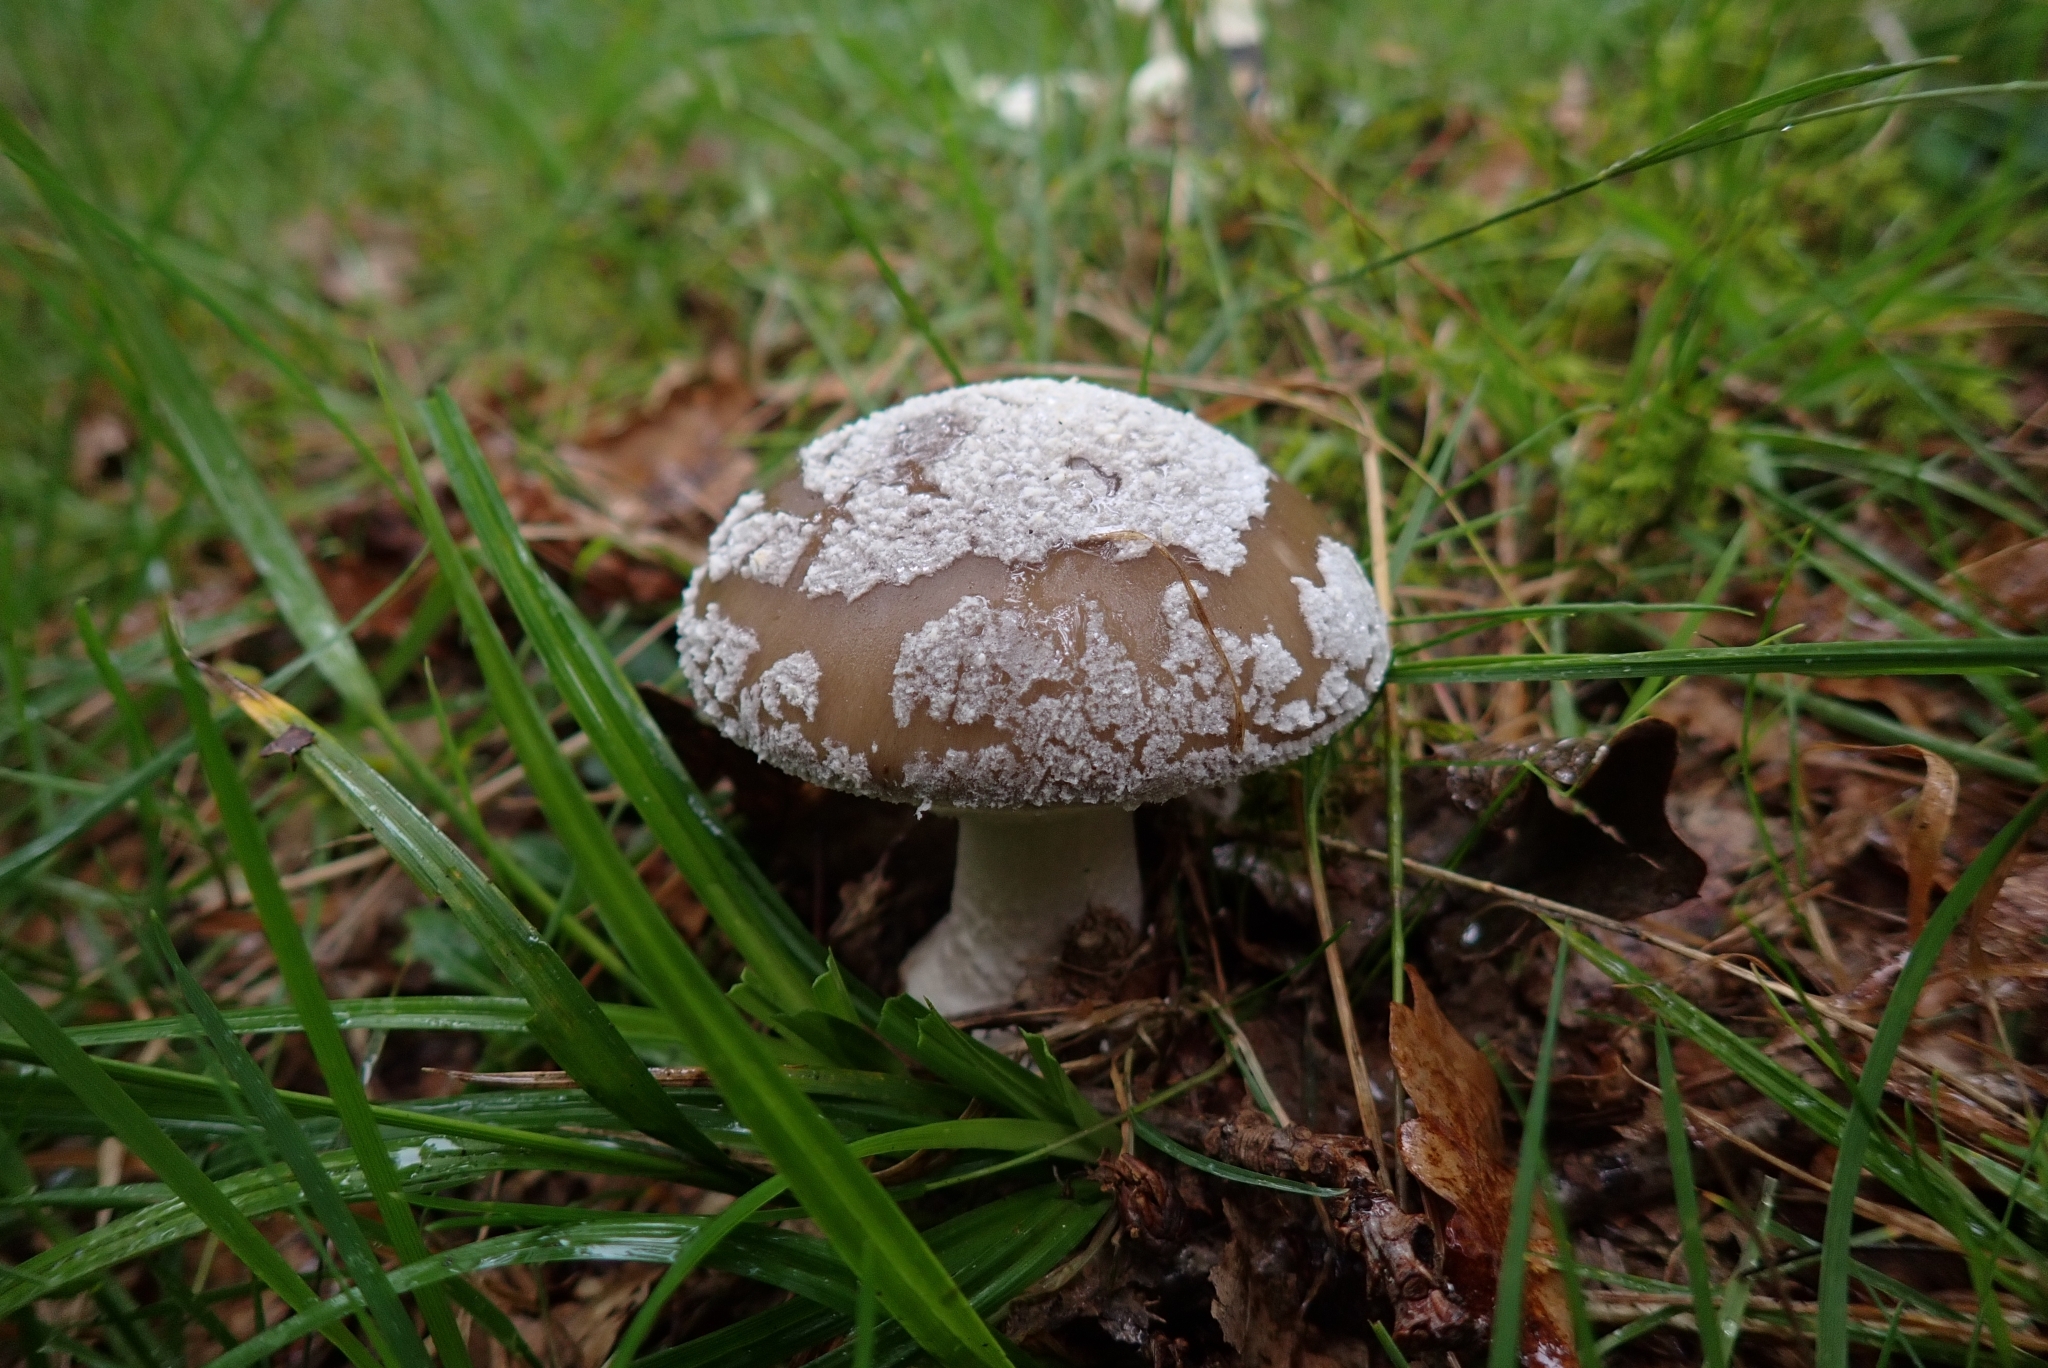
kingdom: Fungi
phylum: Basidiomycota
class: Agaricomycetes
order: Agaricales
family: Amanitaceae
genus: Amanita
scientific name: Amanita excelsa
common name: European false blusher
